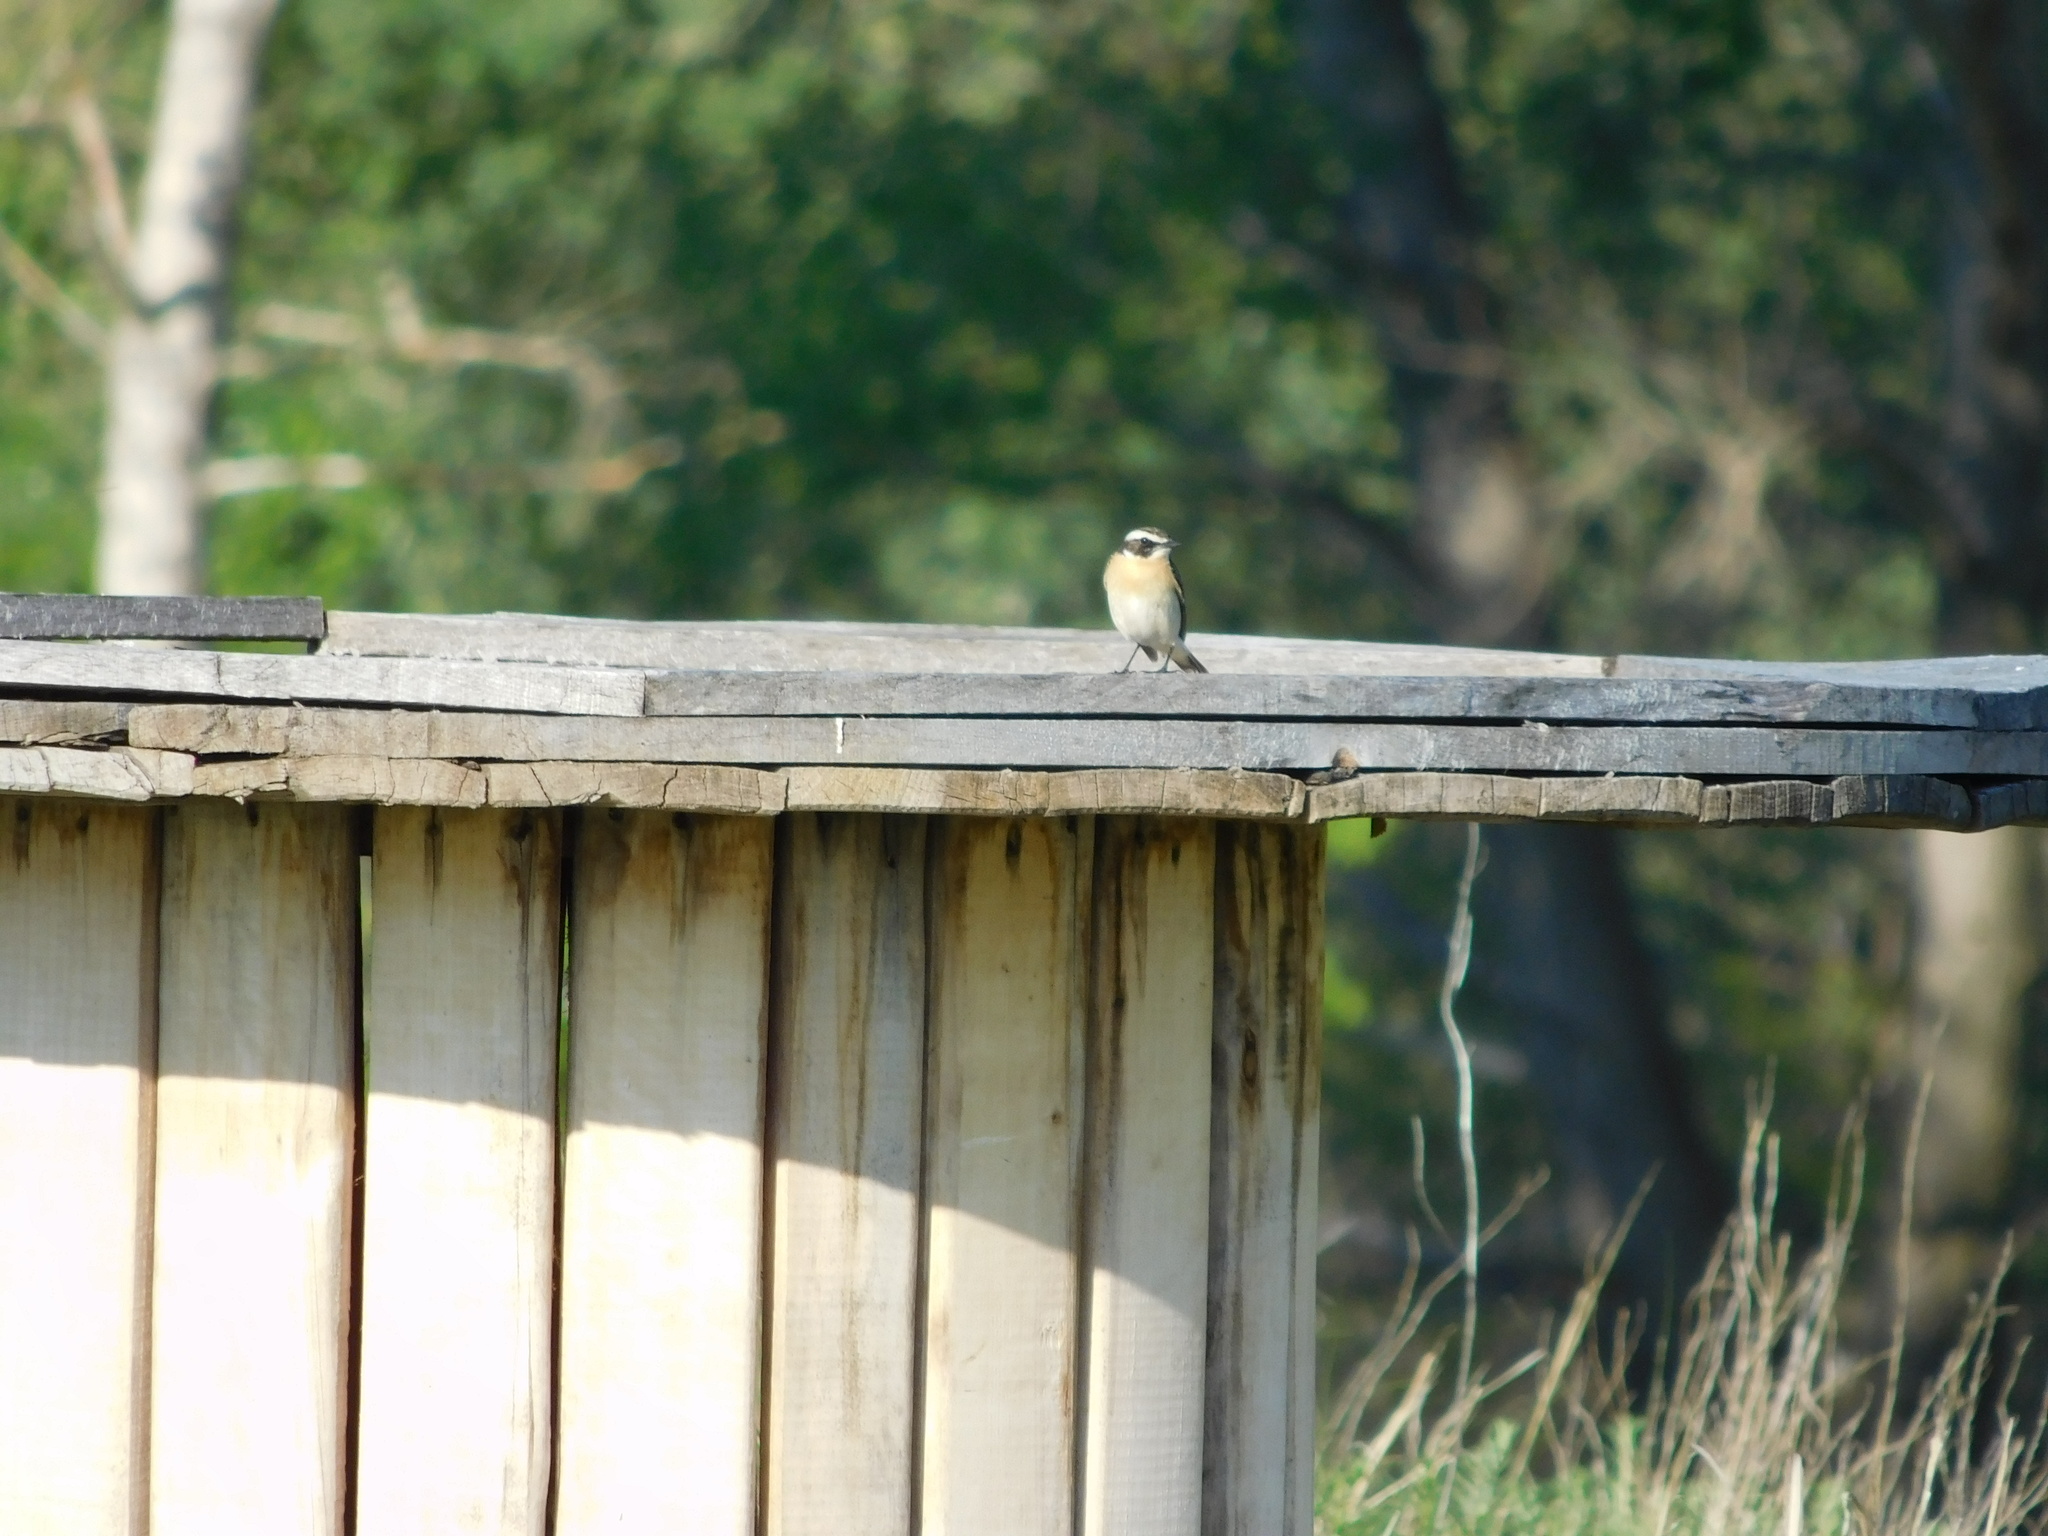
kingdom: Animalia
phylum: Chordata
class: Aves
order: Passeriformes
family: Muscicapidae
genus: Saxicola
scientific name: Saxicola rubetra
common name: Whinchat
